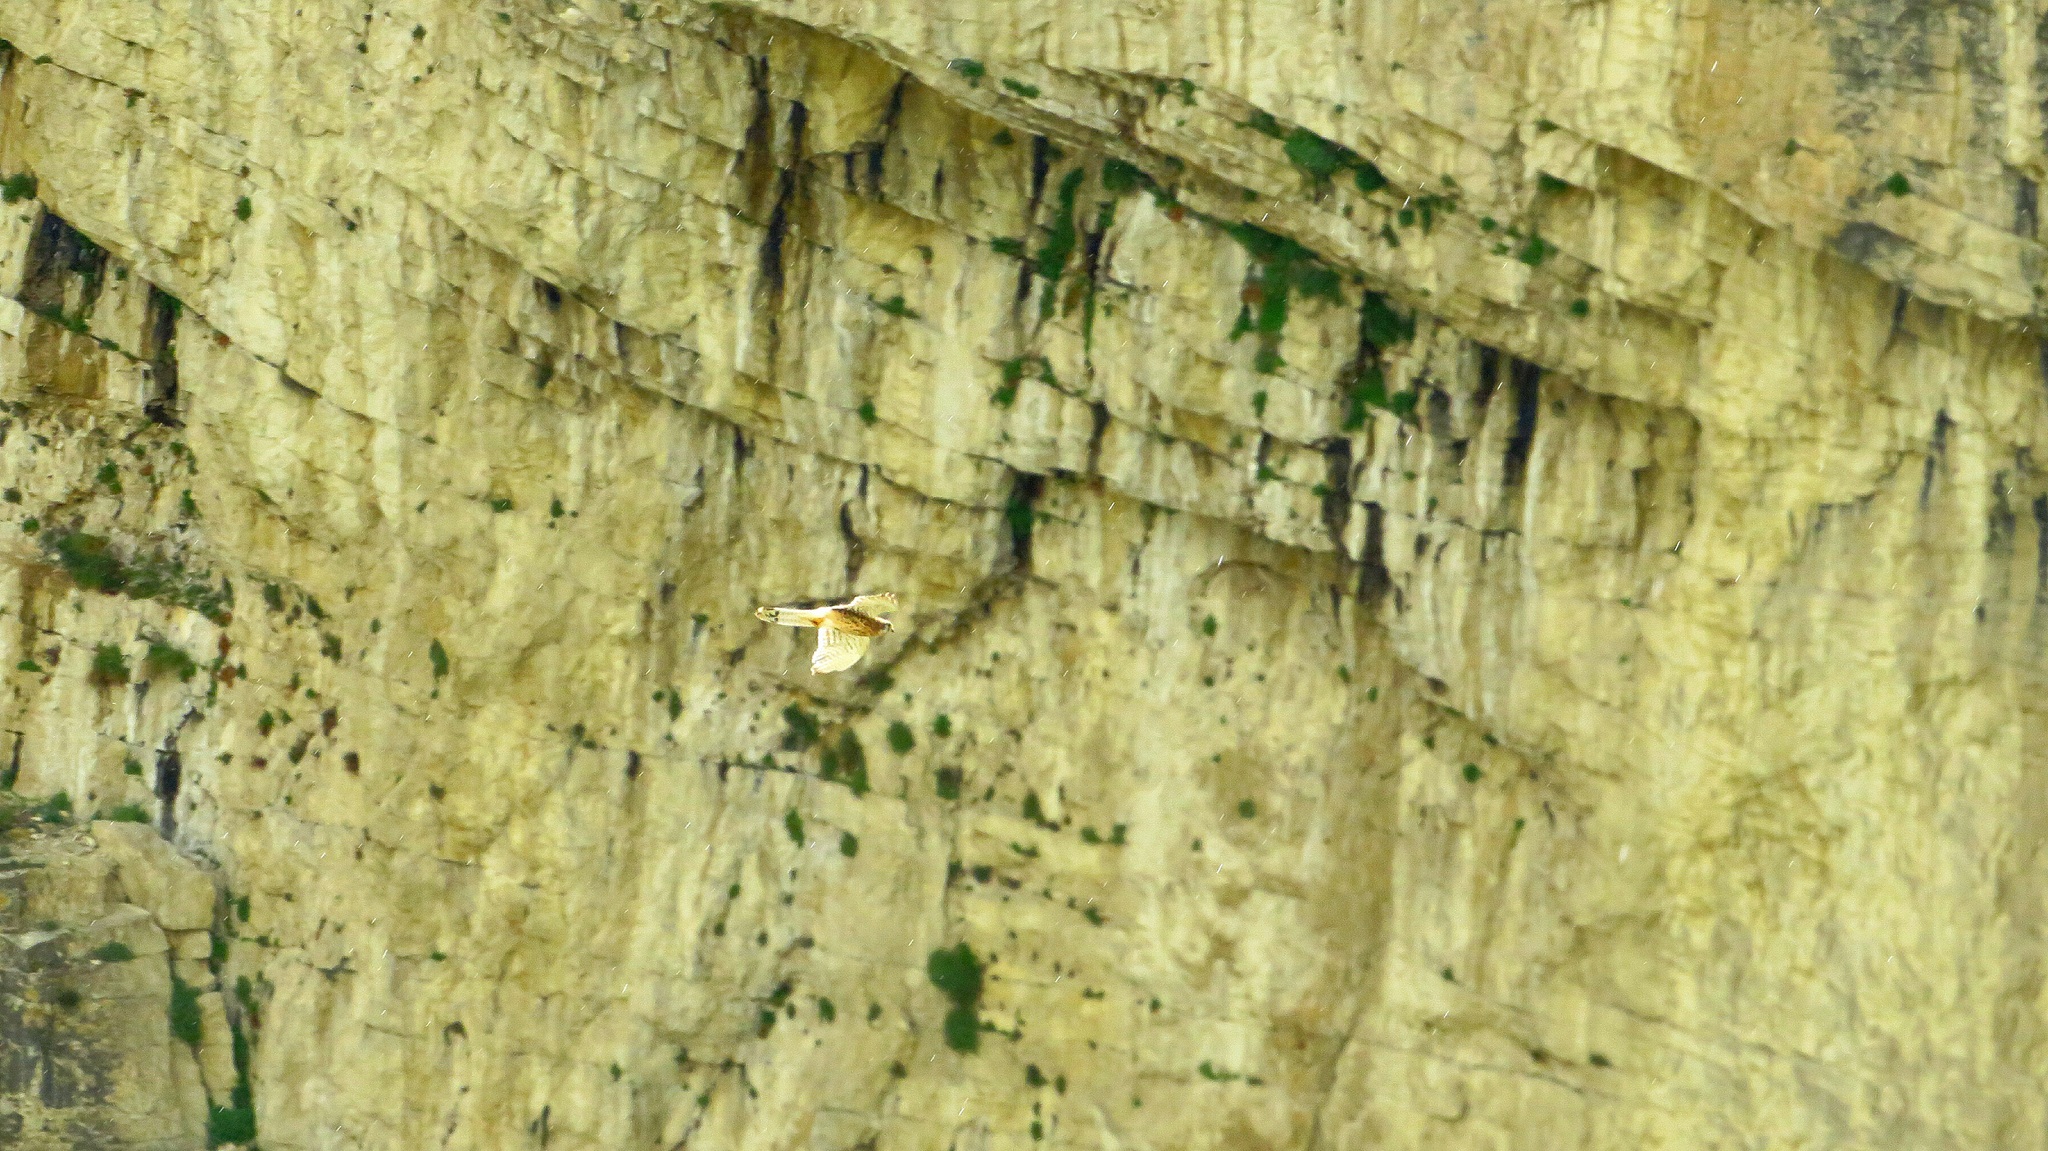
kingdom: Animalia
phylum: Chordata
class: Aves
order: Falconiformes
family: Falconidae
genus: Falco
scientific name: Falco tinnunculus
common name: Common kestrel
